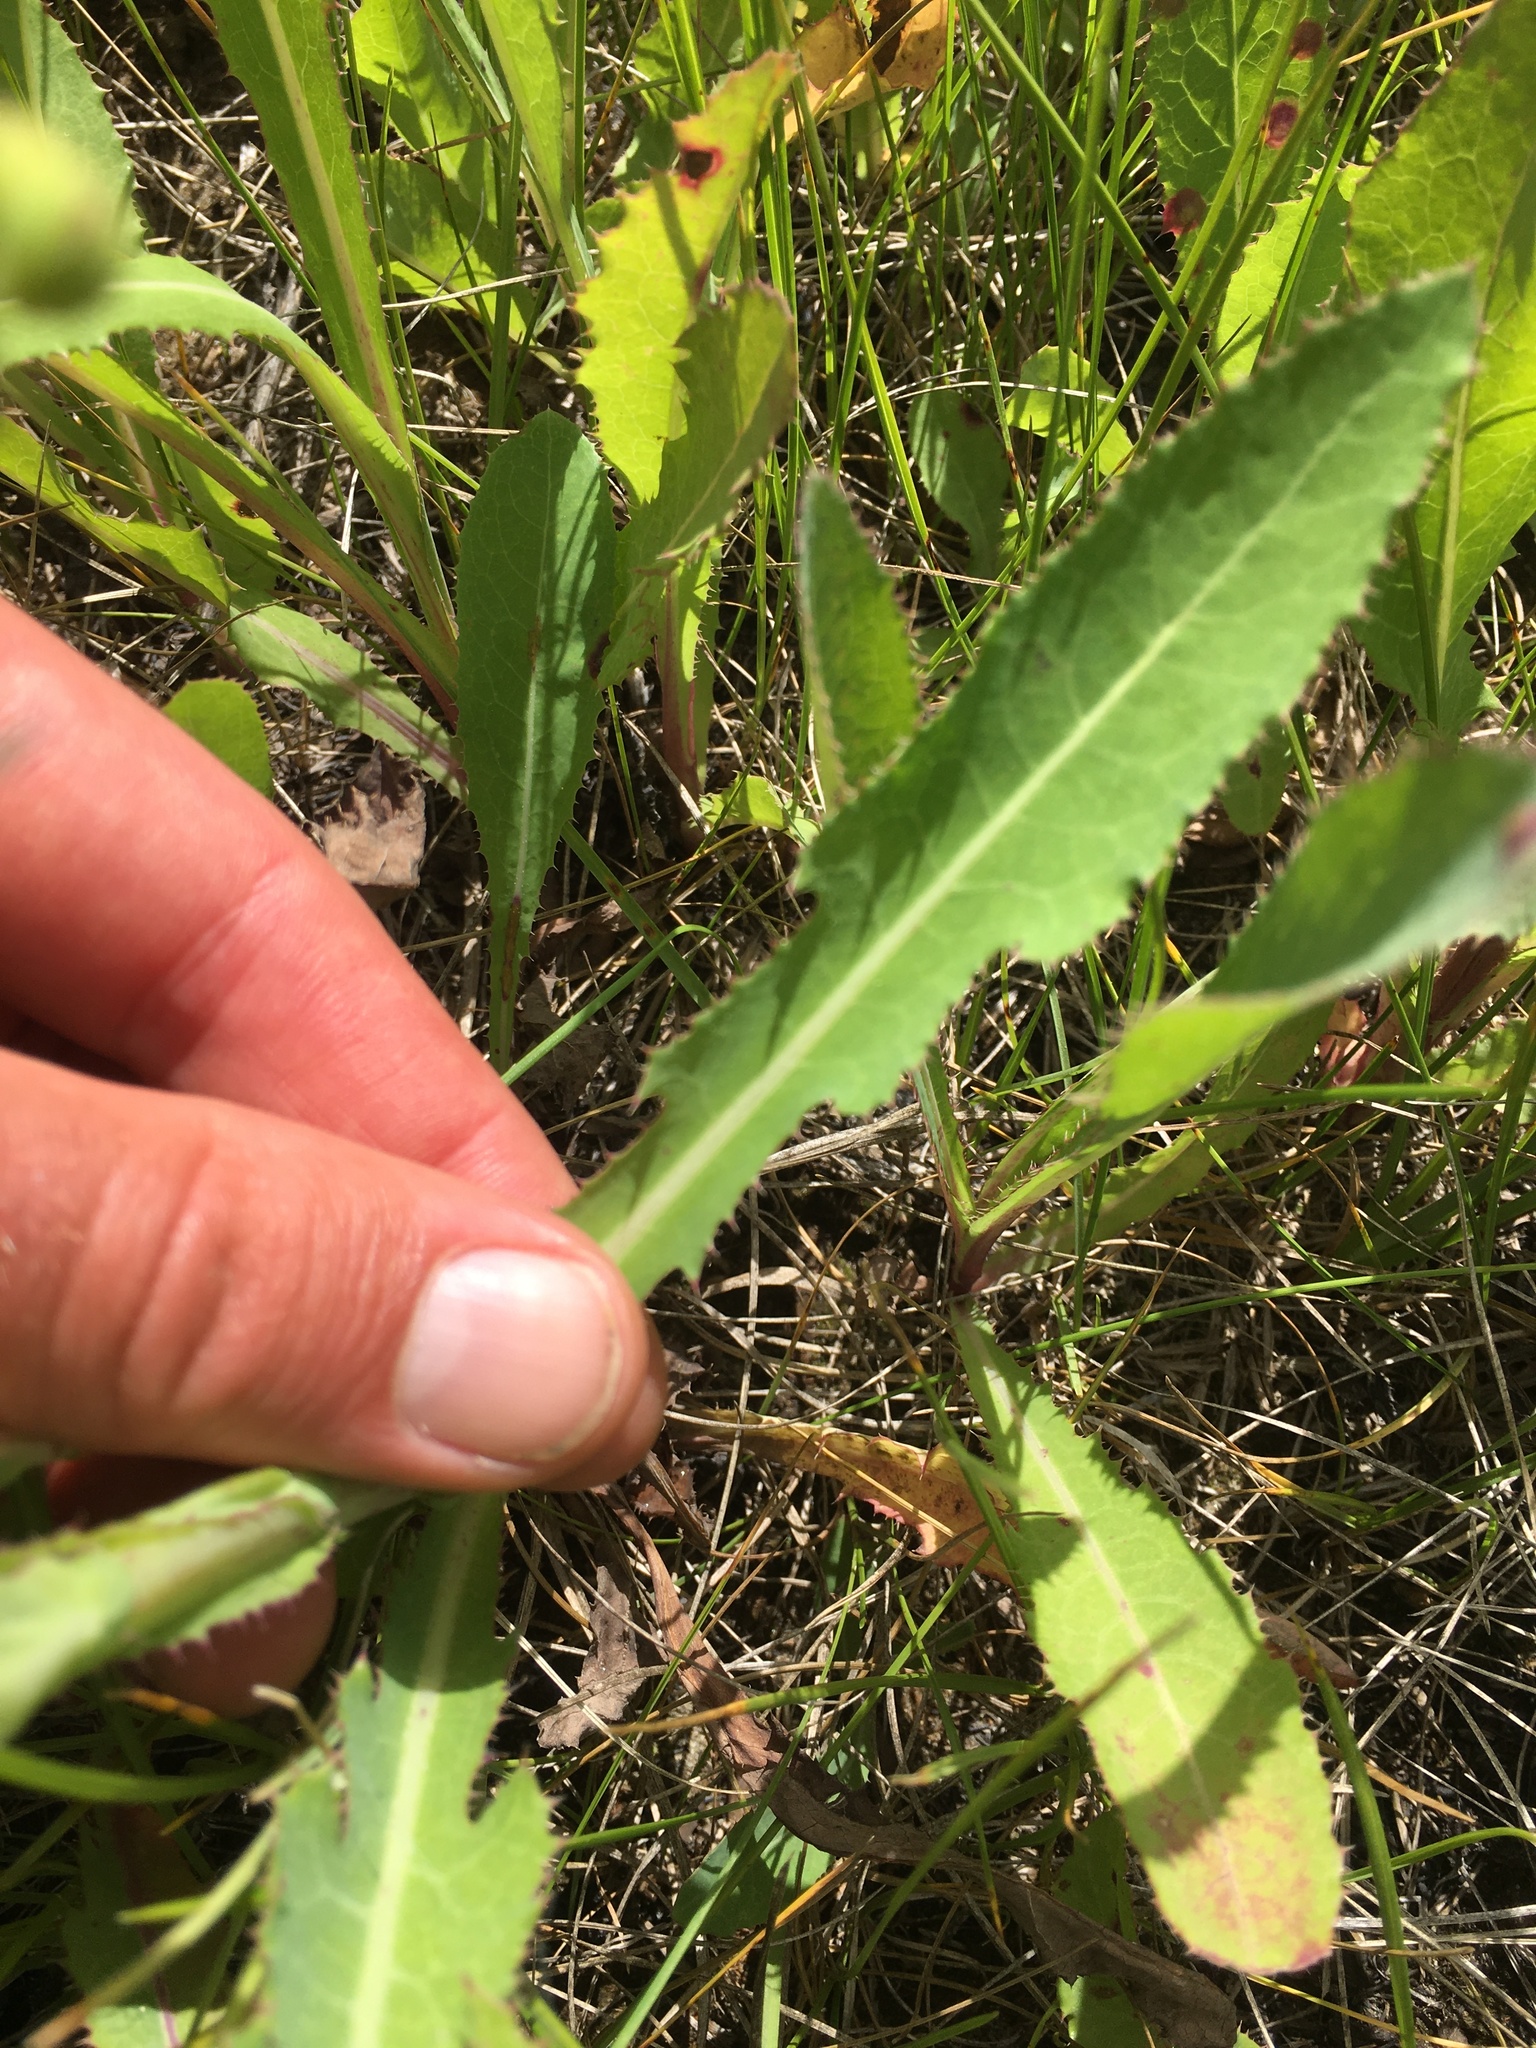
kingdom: Plantae
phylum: Tracheophyta
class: Magnoliopsida
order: Asterales
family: Asteraceae
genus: Sonchus
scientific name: Sonchus arvensis
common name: Perennial sow-thistle
